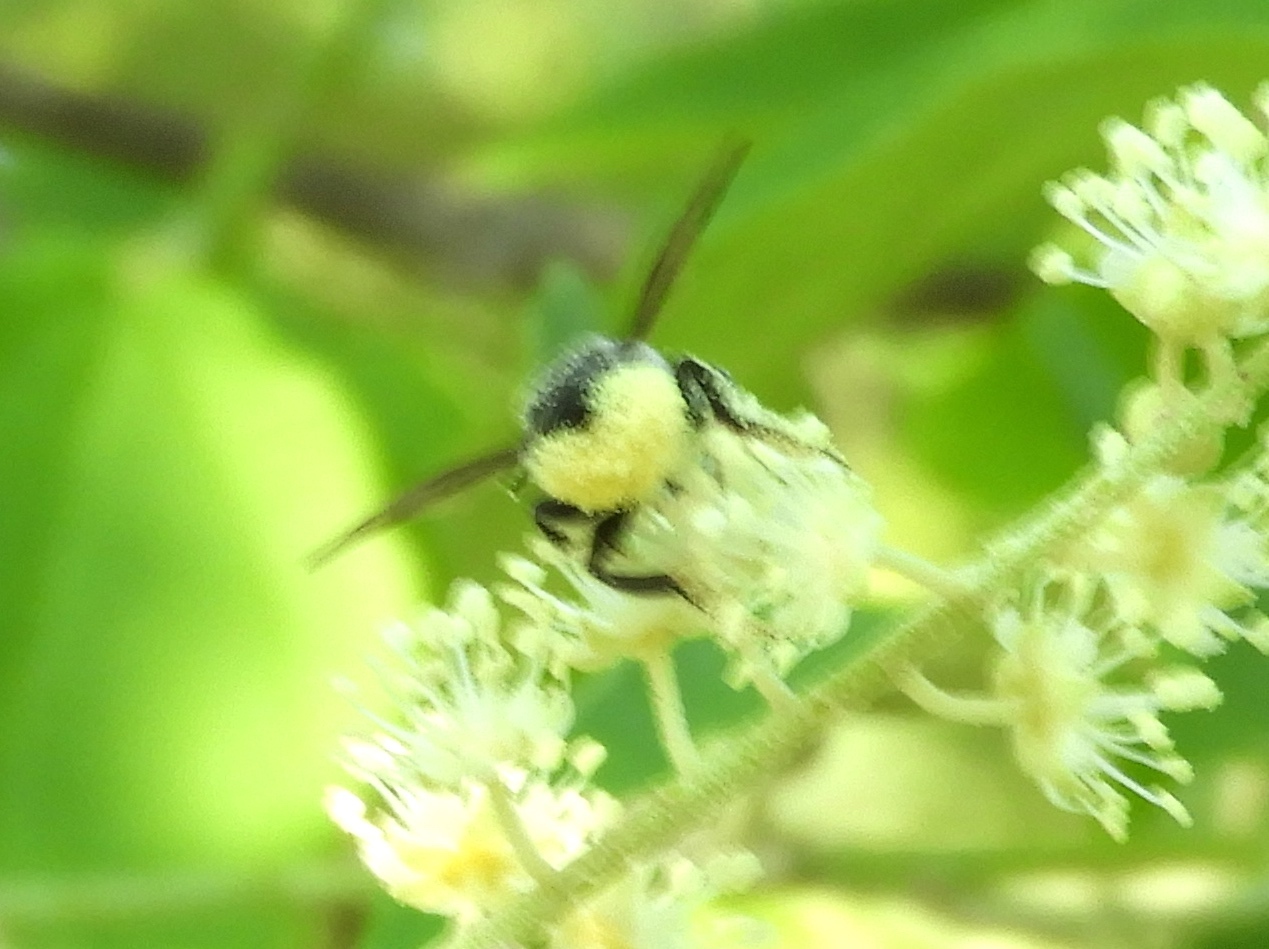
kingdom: Animalia
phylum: Arthropoda
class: Insecta
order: Hymenoptera
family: Megachilidae
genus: Megachile
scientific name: Megachile
